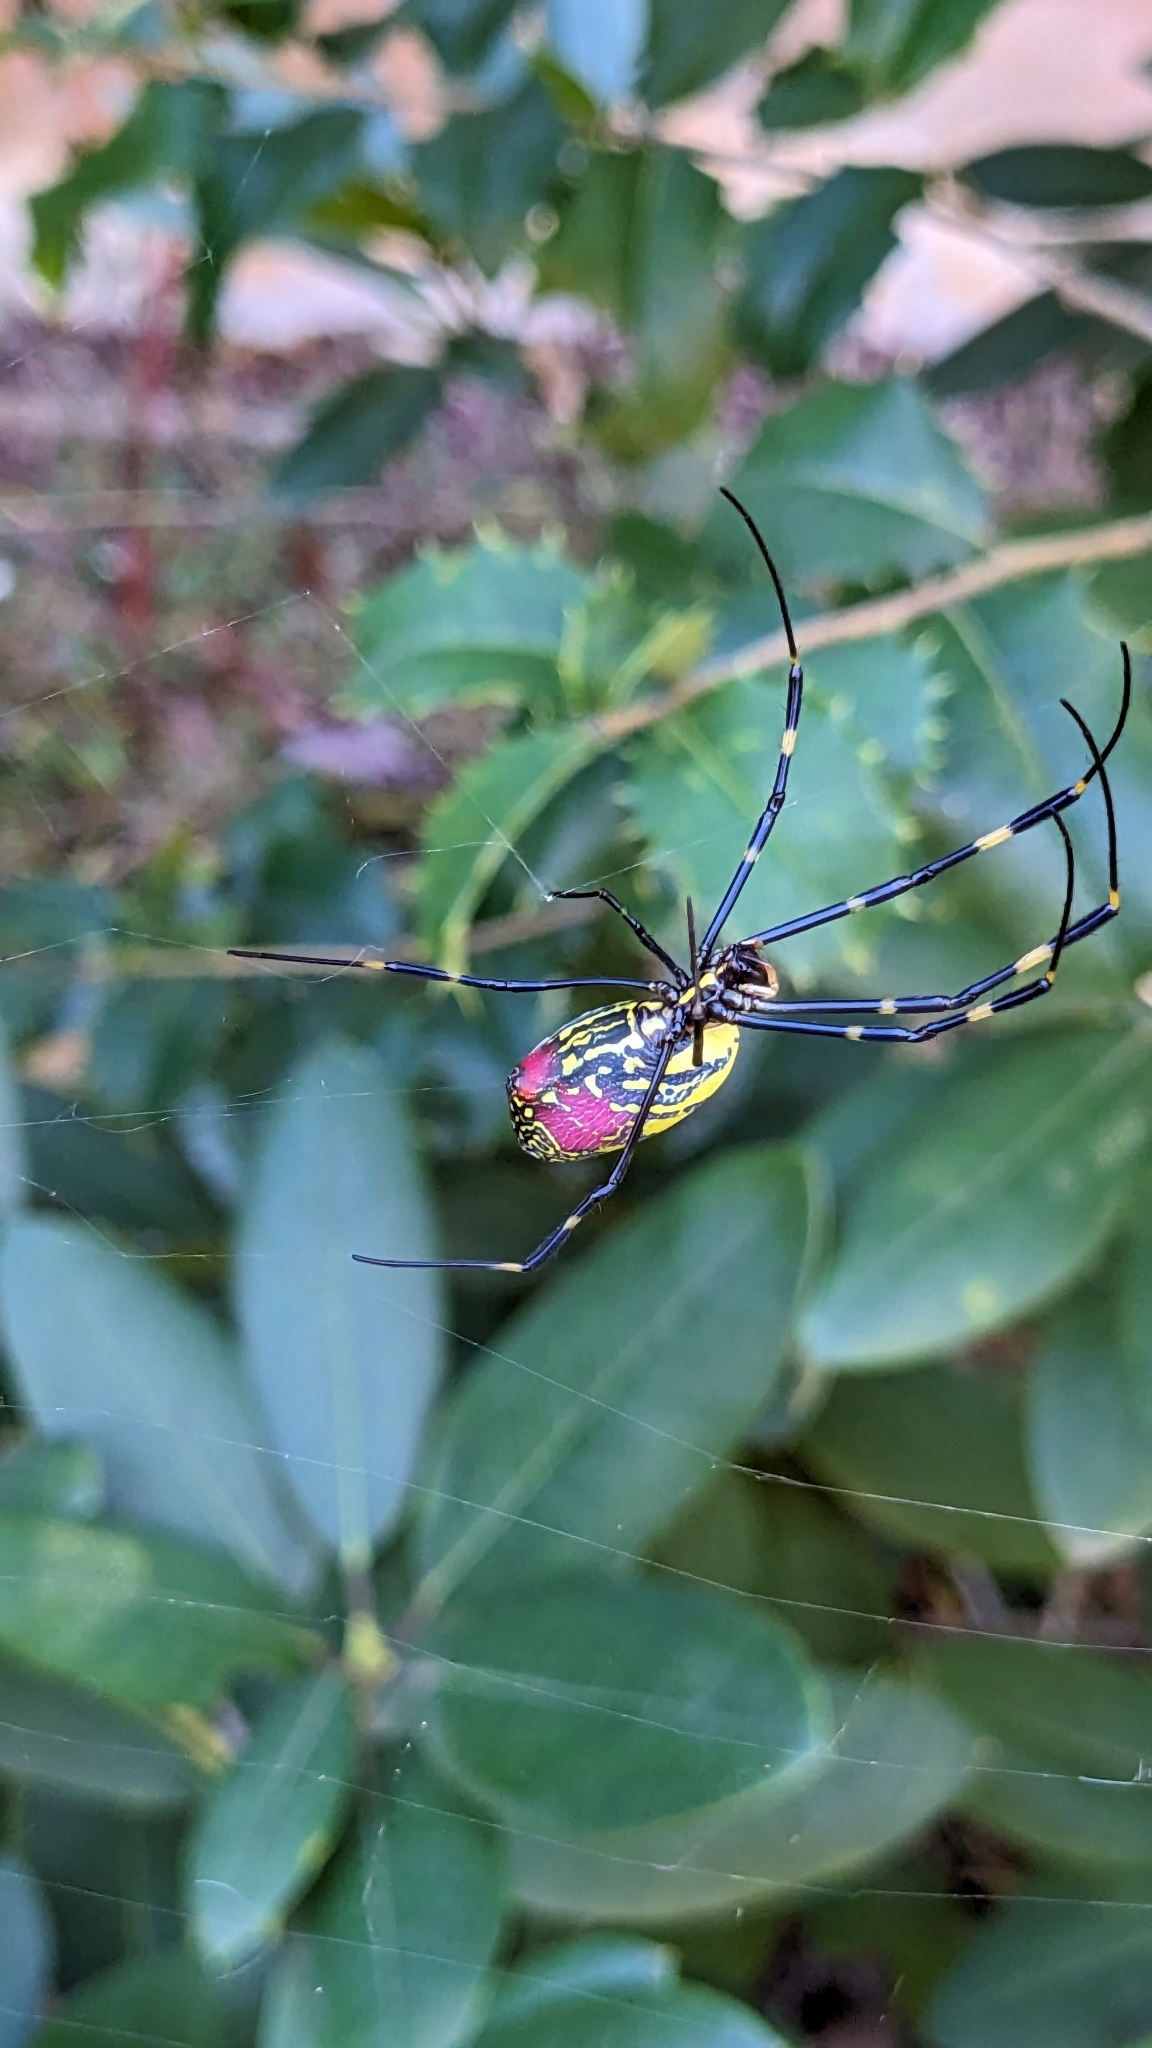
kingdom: Animalia
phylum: Arthropoda
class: Arachnida
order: Araneae
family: Araneidae
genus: Trichonephila
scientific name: Trichonephila clavata
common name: Jorō spider
